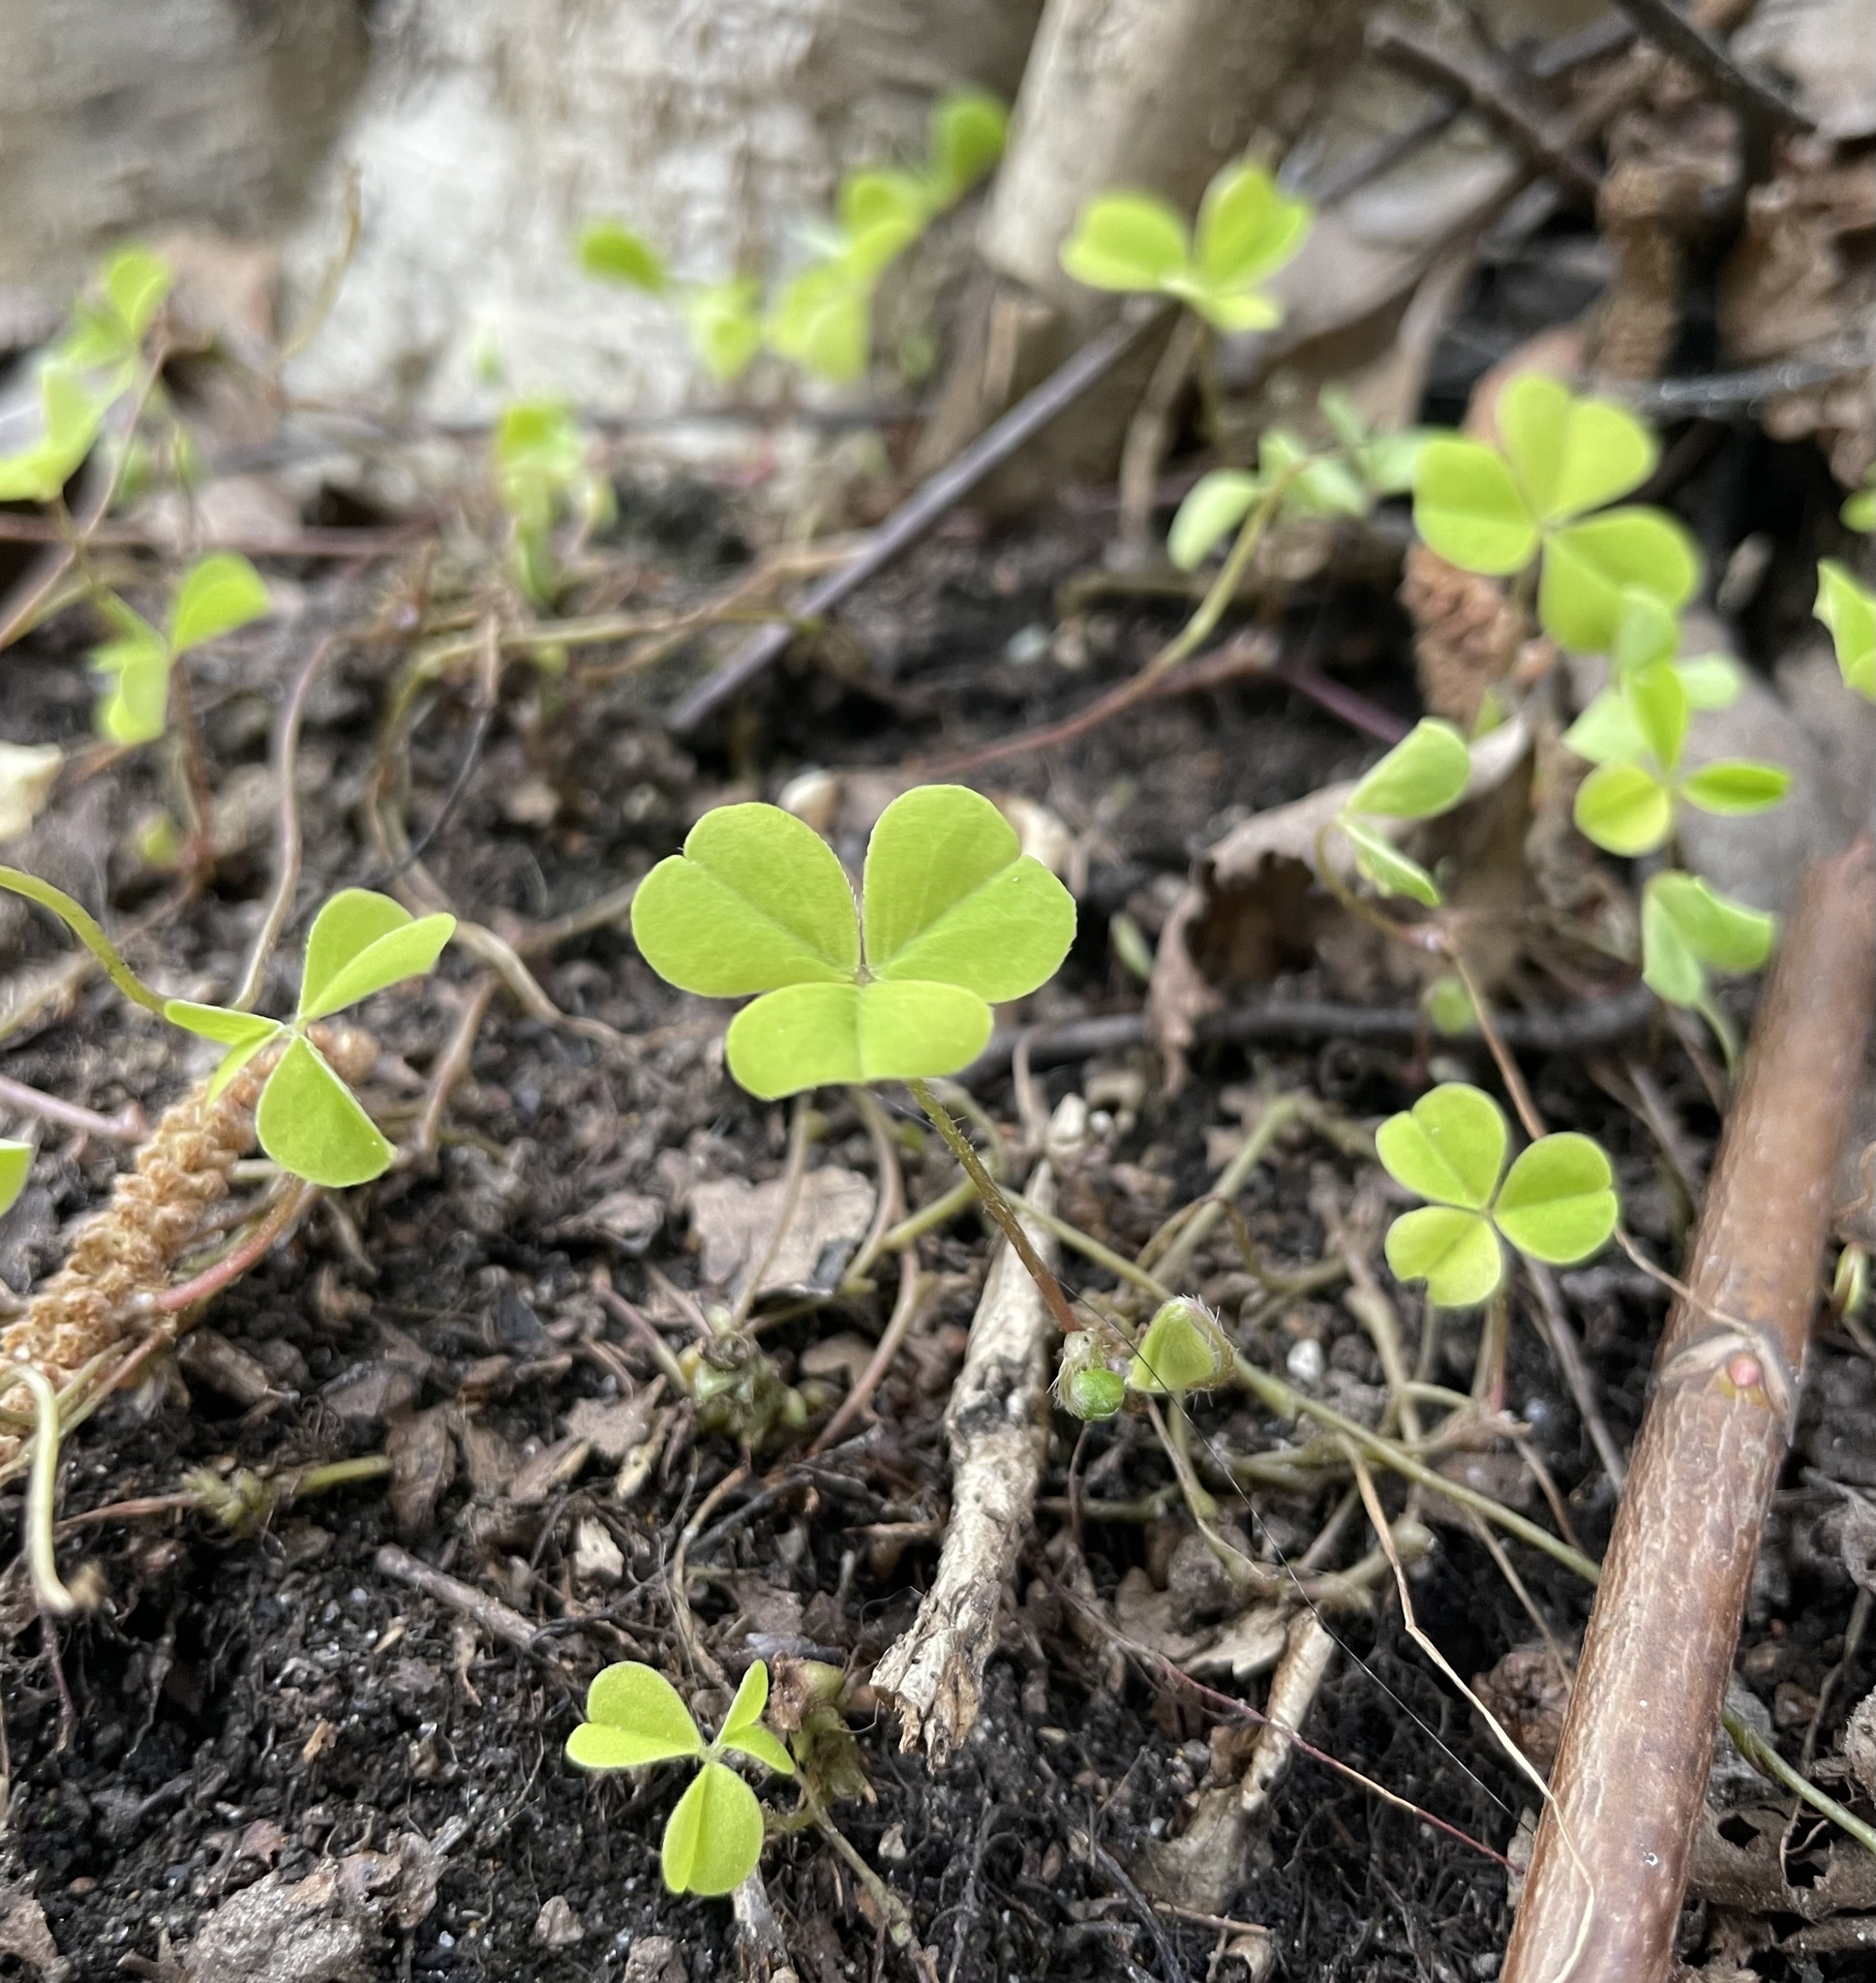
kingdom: Plantae
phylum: Tracheophyta
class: Magnoliopsida
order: Oxalidales
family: Oxalidaceae
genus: Oxalis
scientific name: Oxalis acetosella
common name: Wood-sorrel
